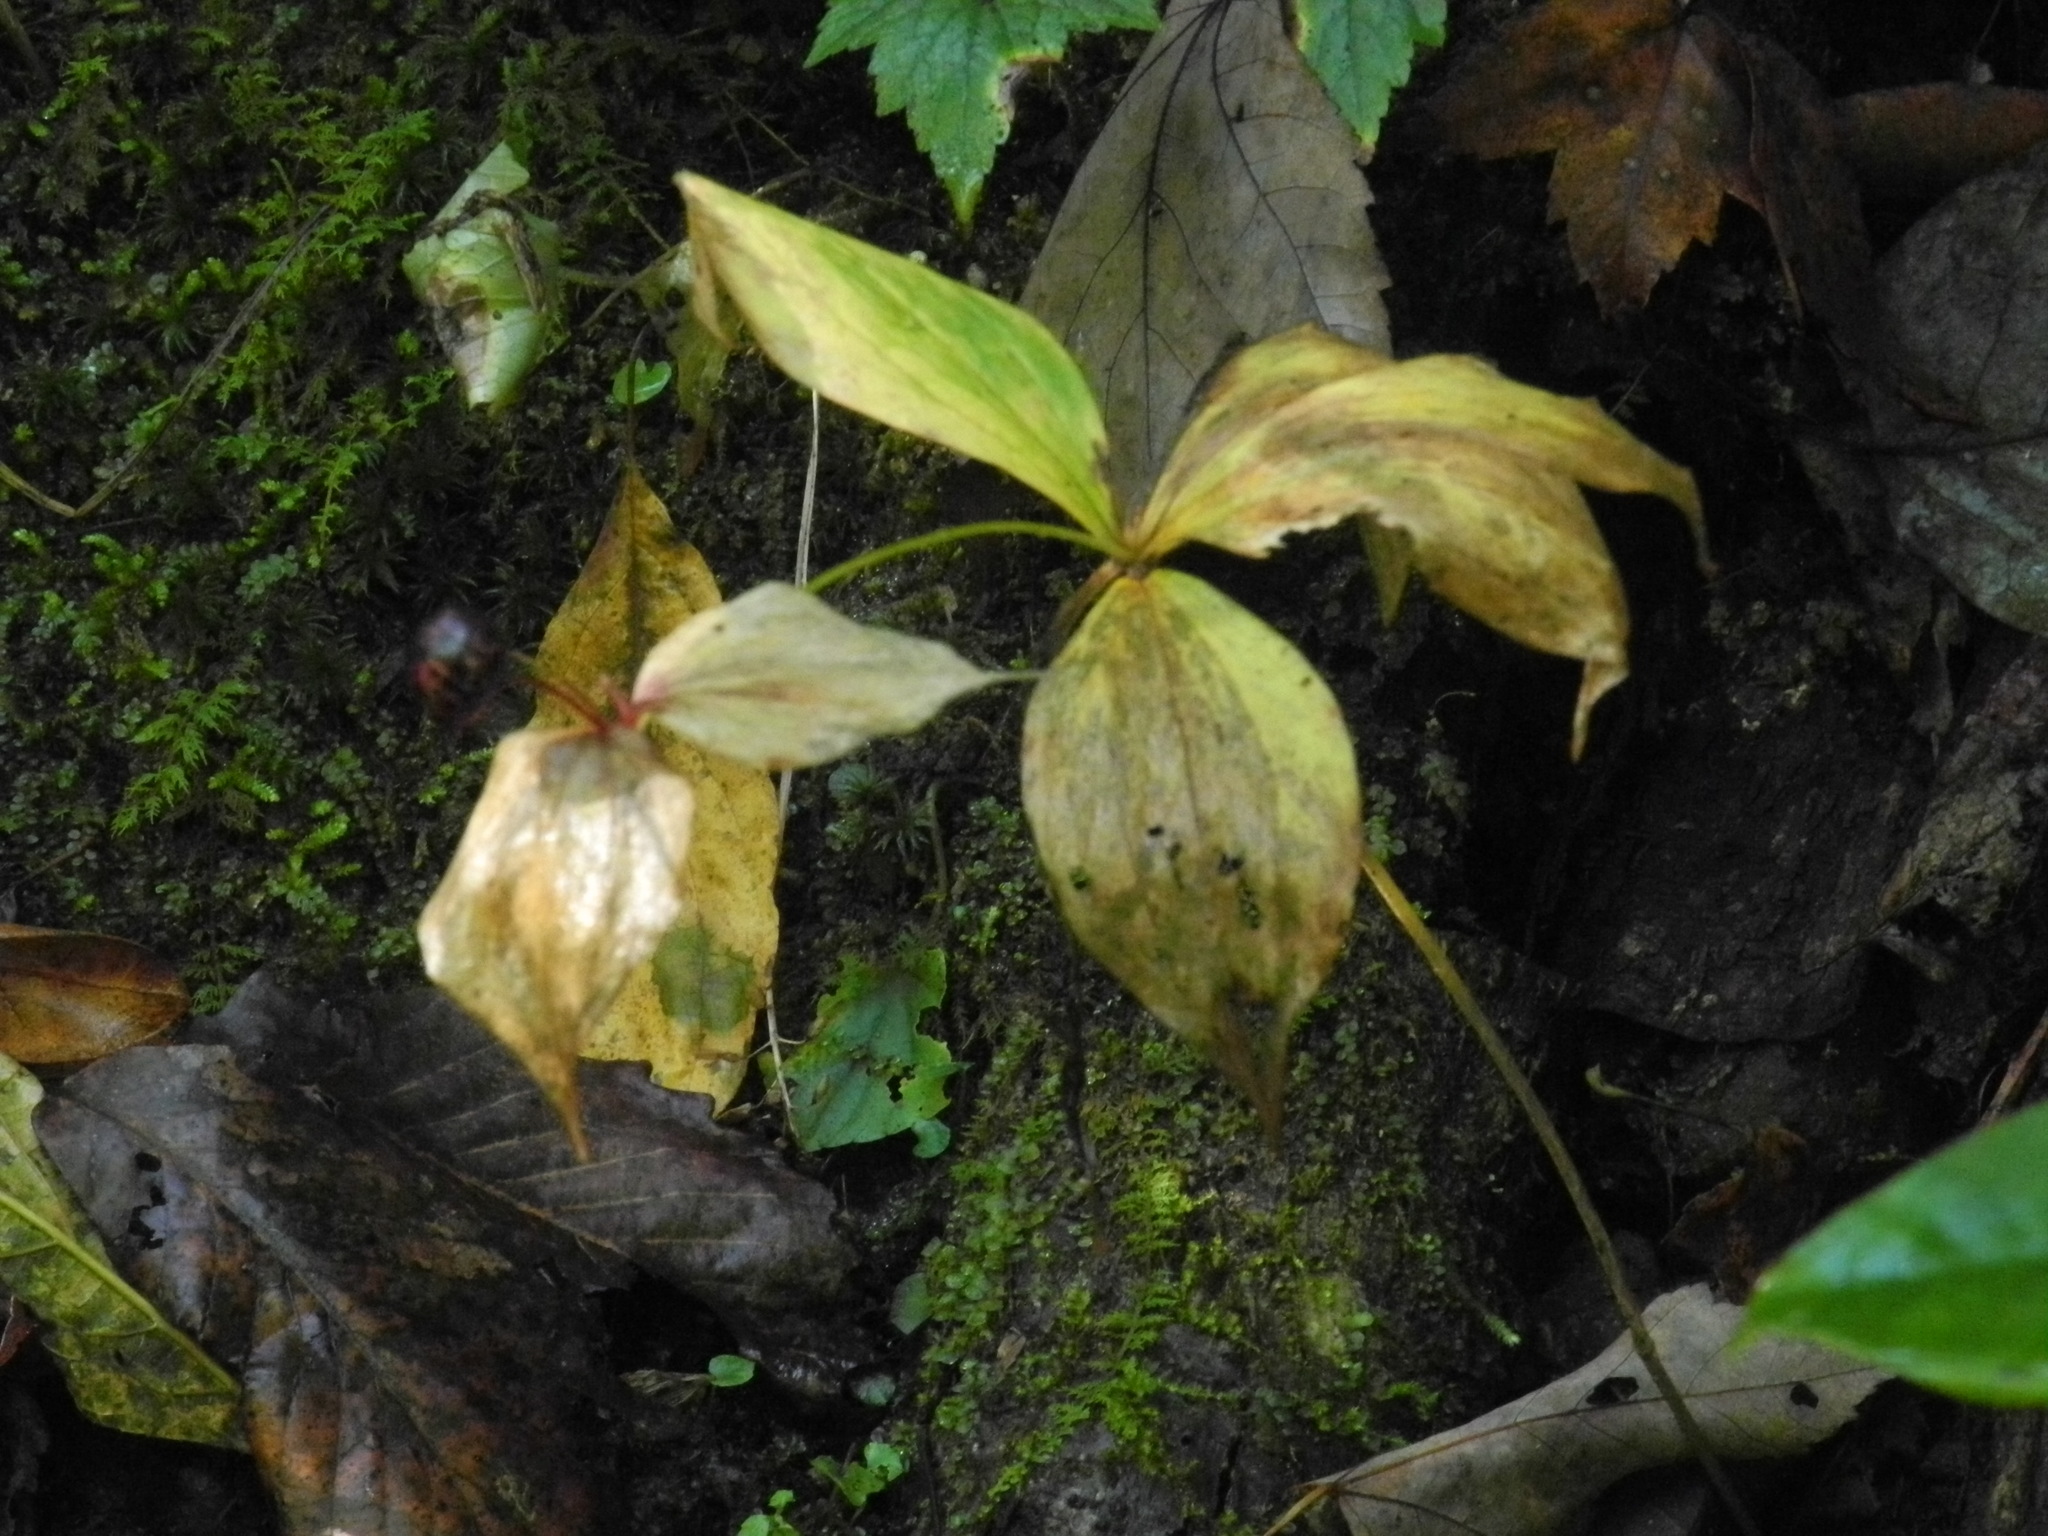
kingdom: Plantae
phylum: Tracheophyta
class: Liliopsida
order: Liliales
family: Liliaceae
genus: Medeola
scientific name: Medeola virginiana
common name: Indian cucumber-root
